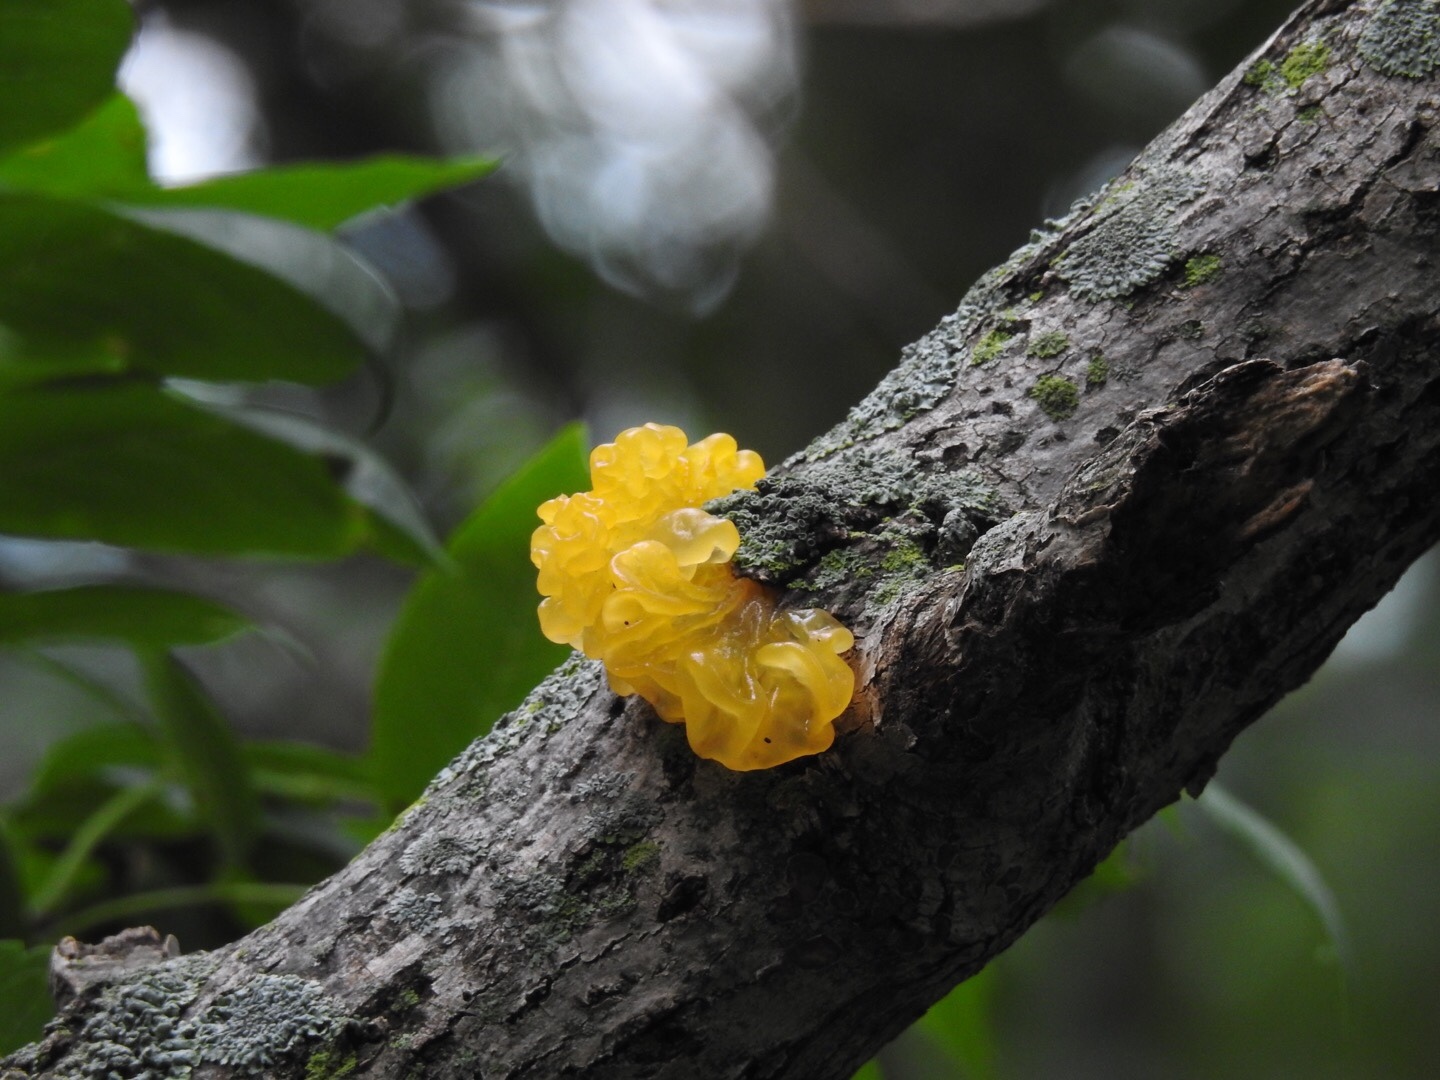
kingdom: Fungi
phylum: Basidiomycota
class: Tremellomycetes
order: Tremellales
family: Tremellaceae
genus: Tremella
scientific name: Tremella mesenterica
